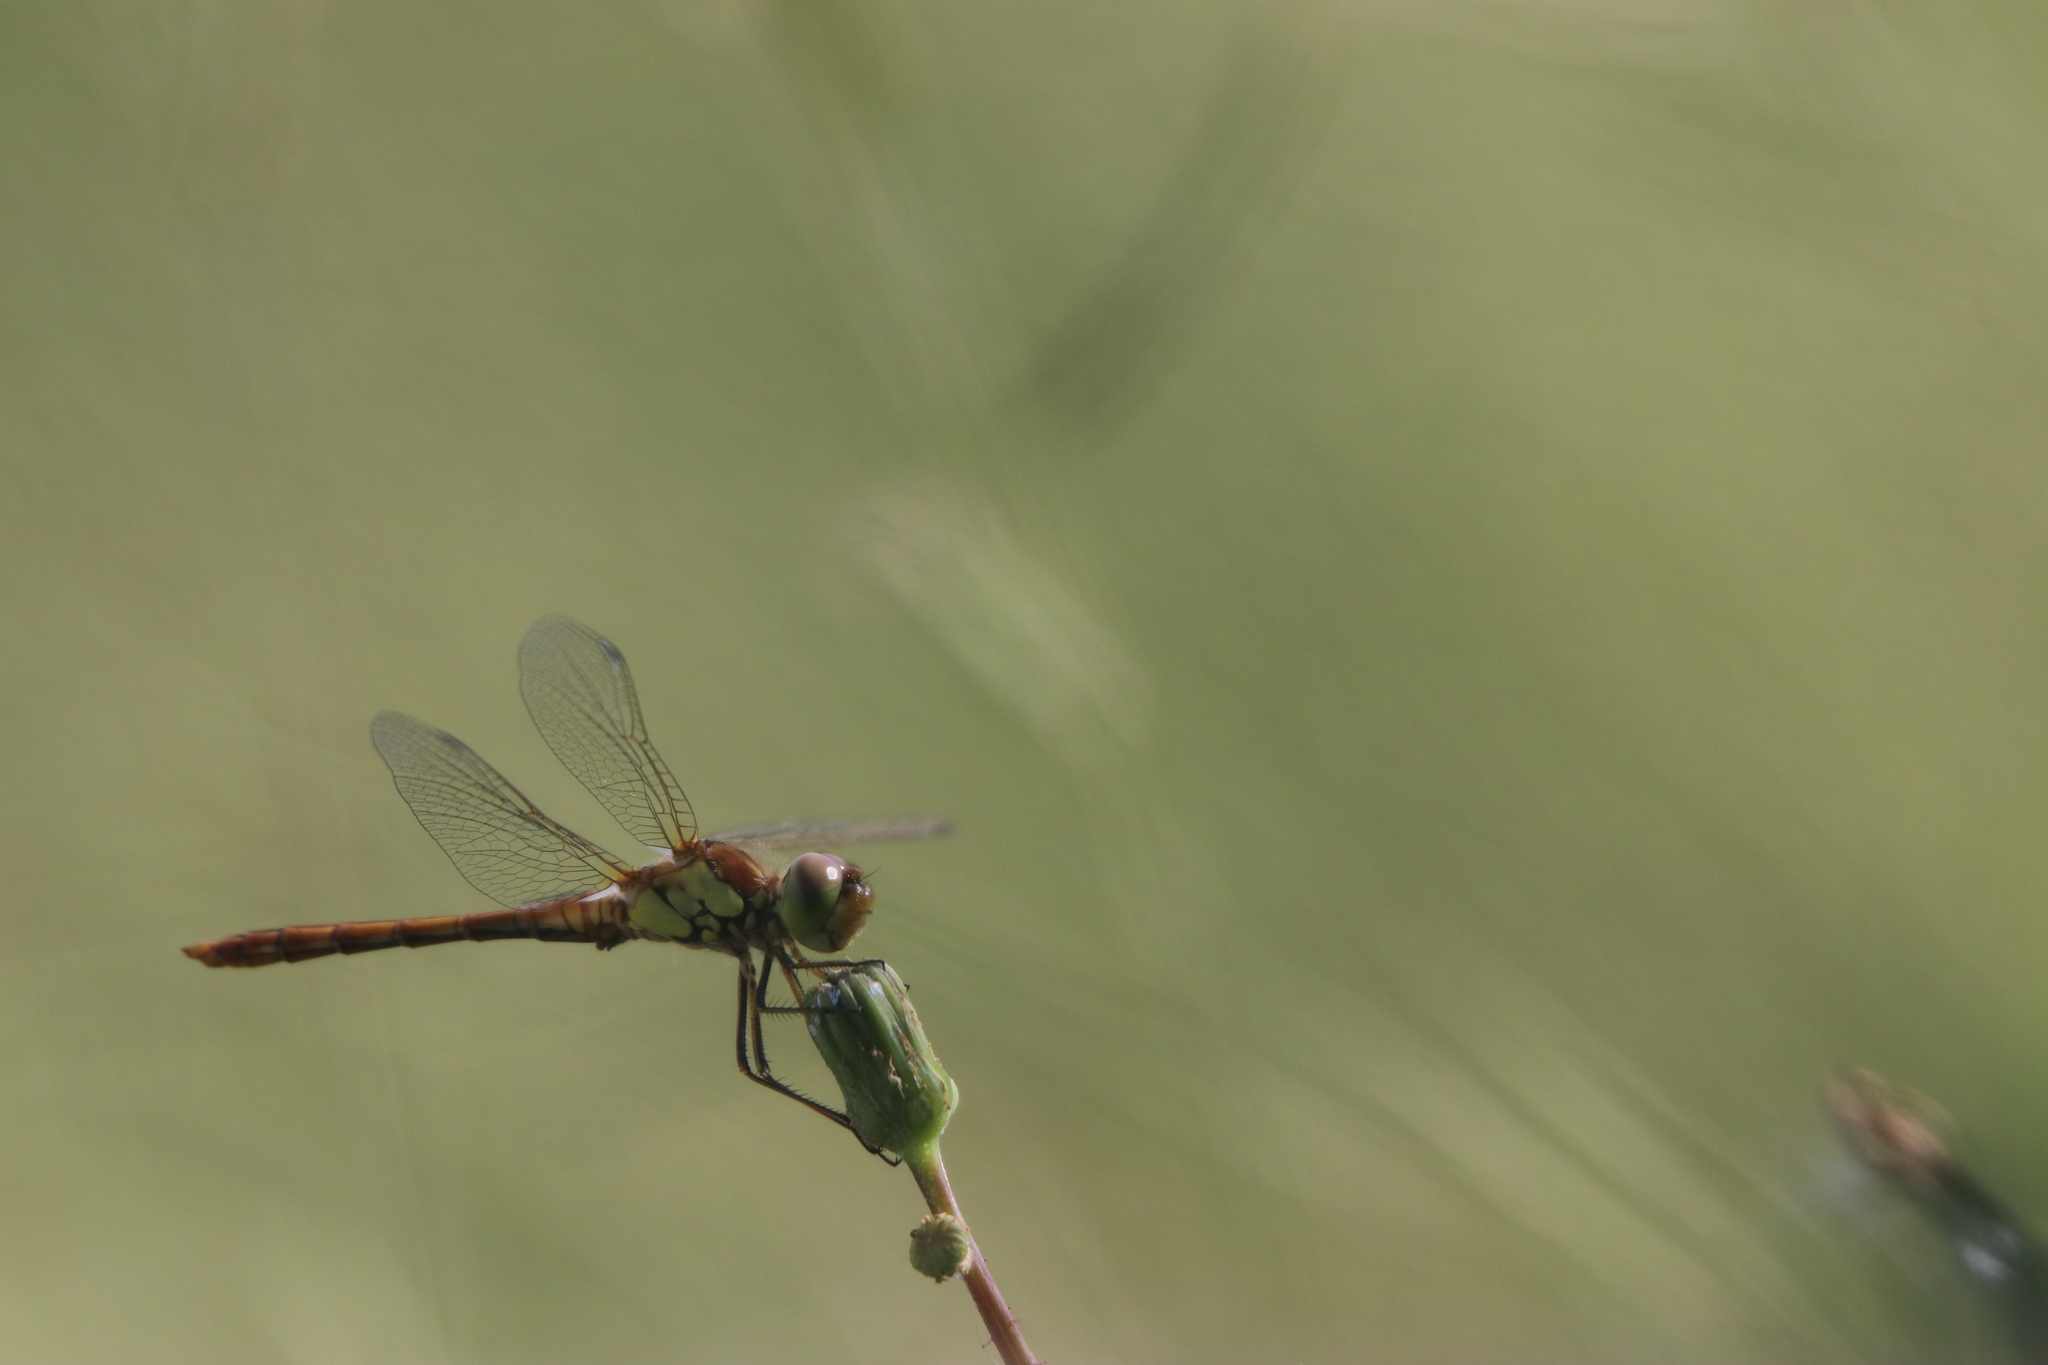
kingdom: Animalia
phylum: Arthropoda
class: Insecta
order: Odonata
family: Libellulidae
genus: Sympetrum
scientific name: Sympetrum striolatum
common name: Common darter
